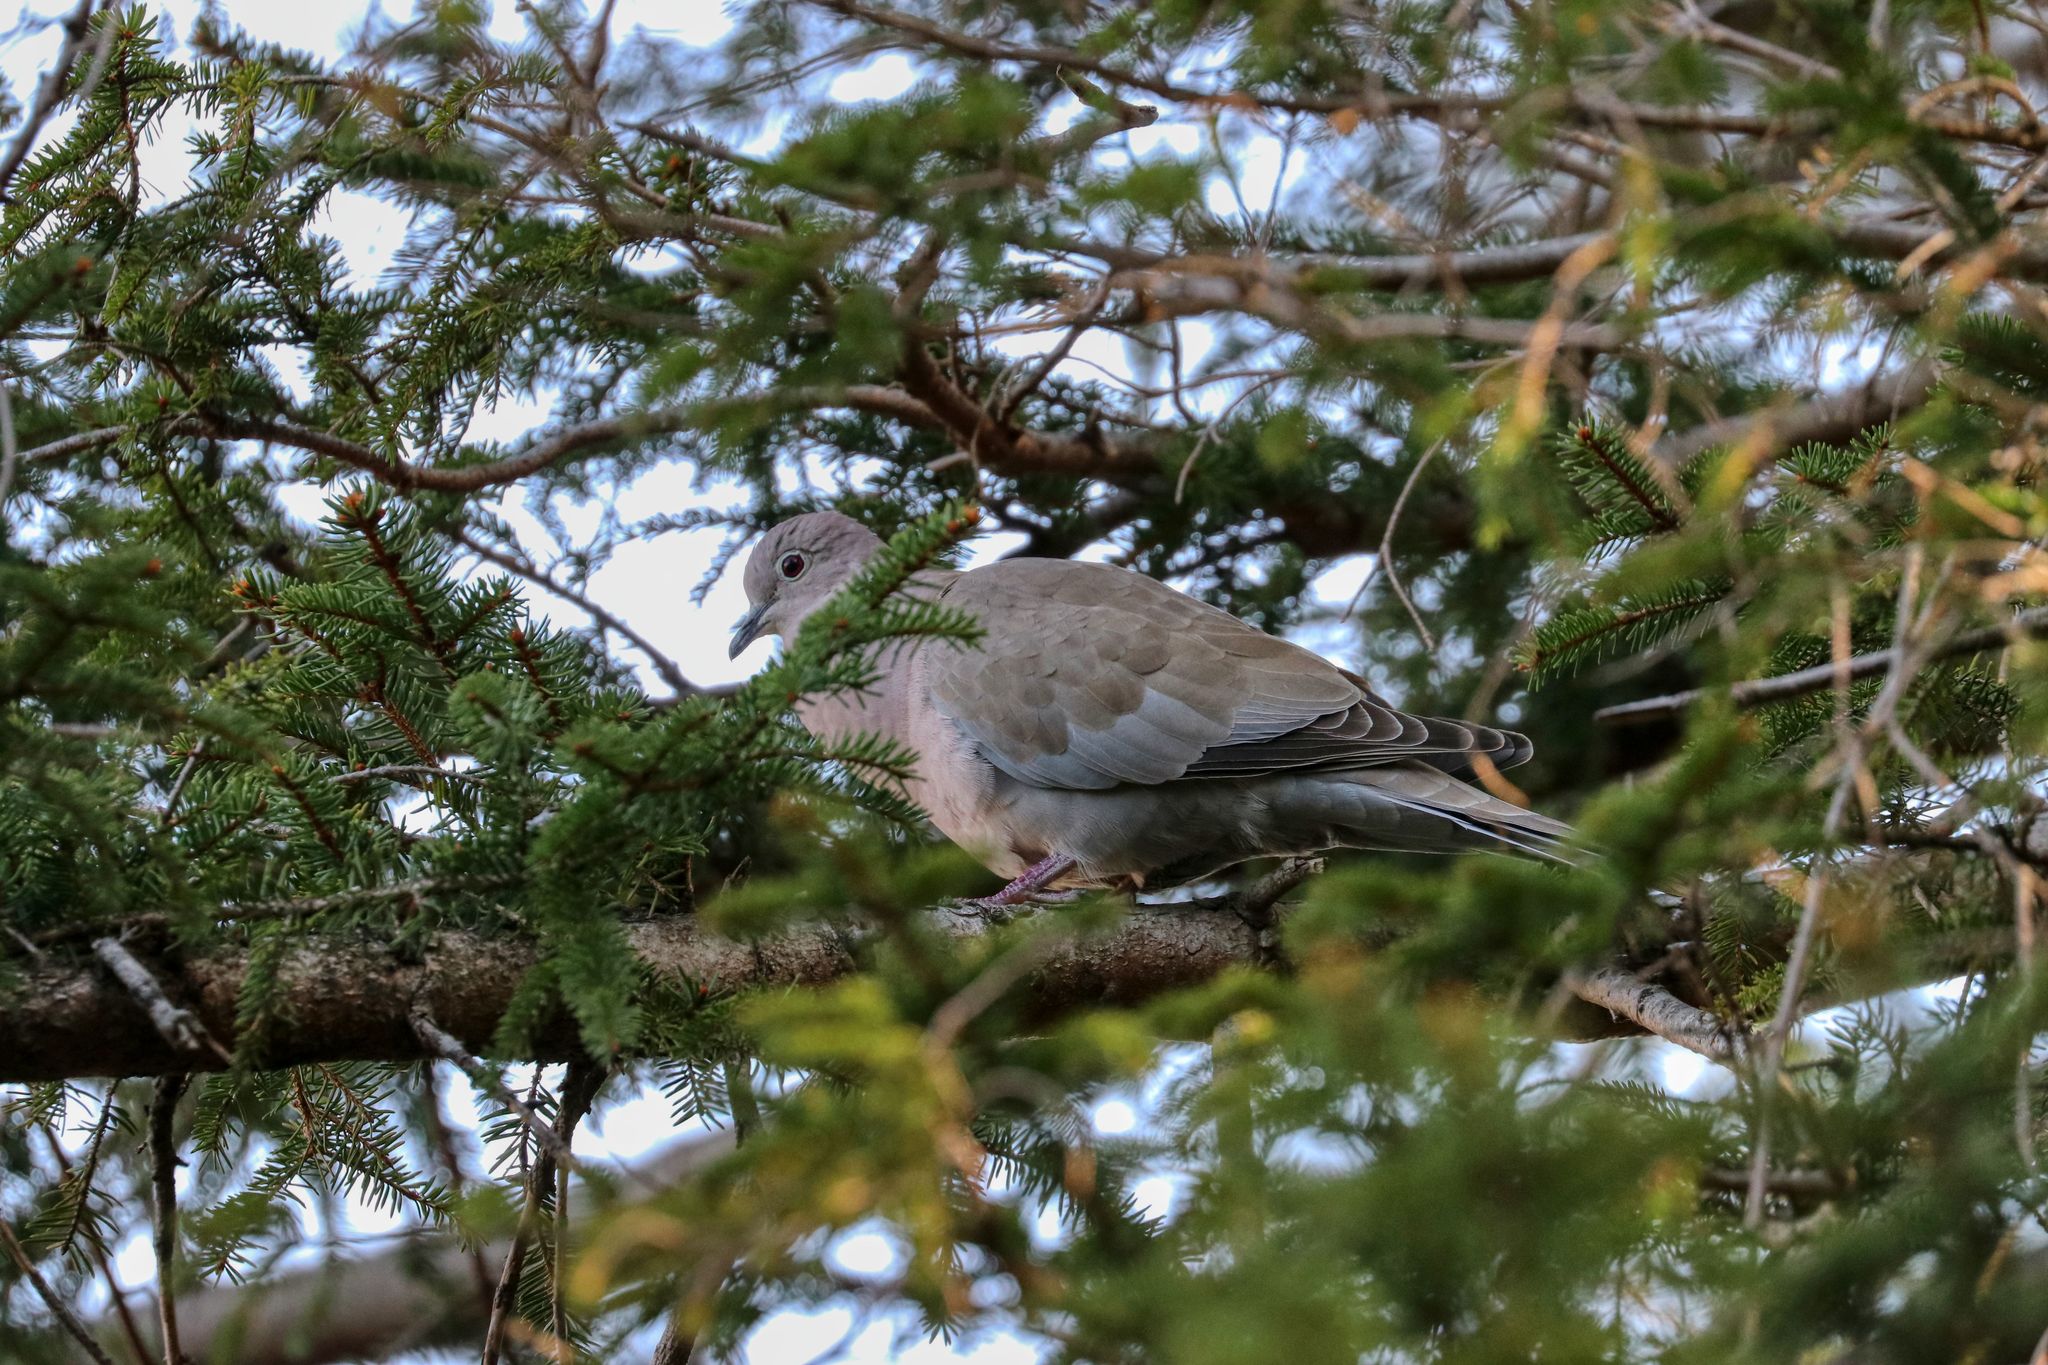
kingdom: Animalia
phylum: Chordata
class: Aves
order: Columbiformes
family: Columbidae
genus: Streptopelia
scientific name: Streptopelia decaocto
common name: Eurasian collared dove
